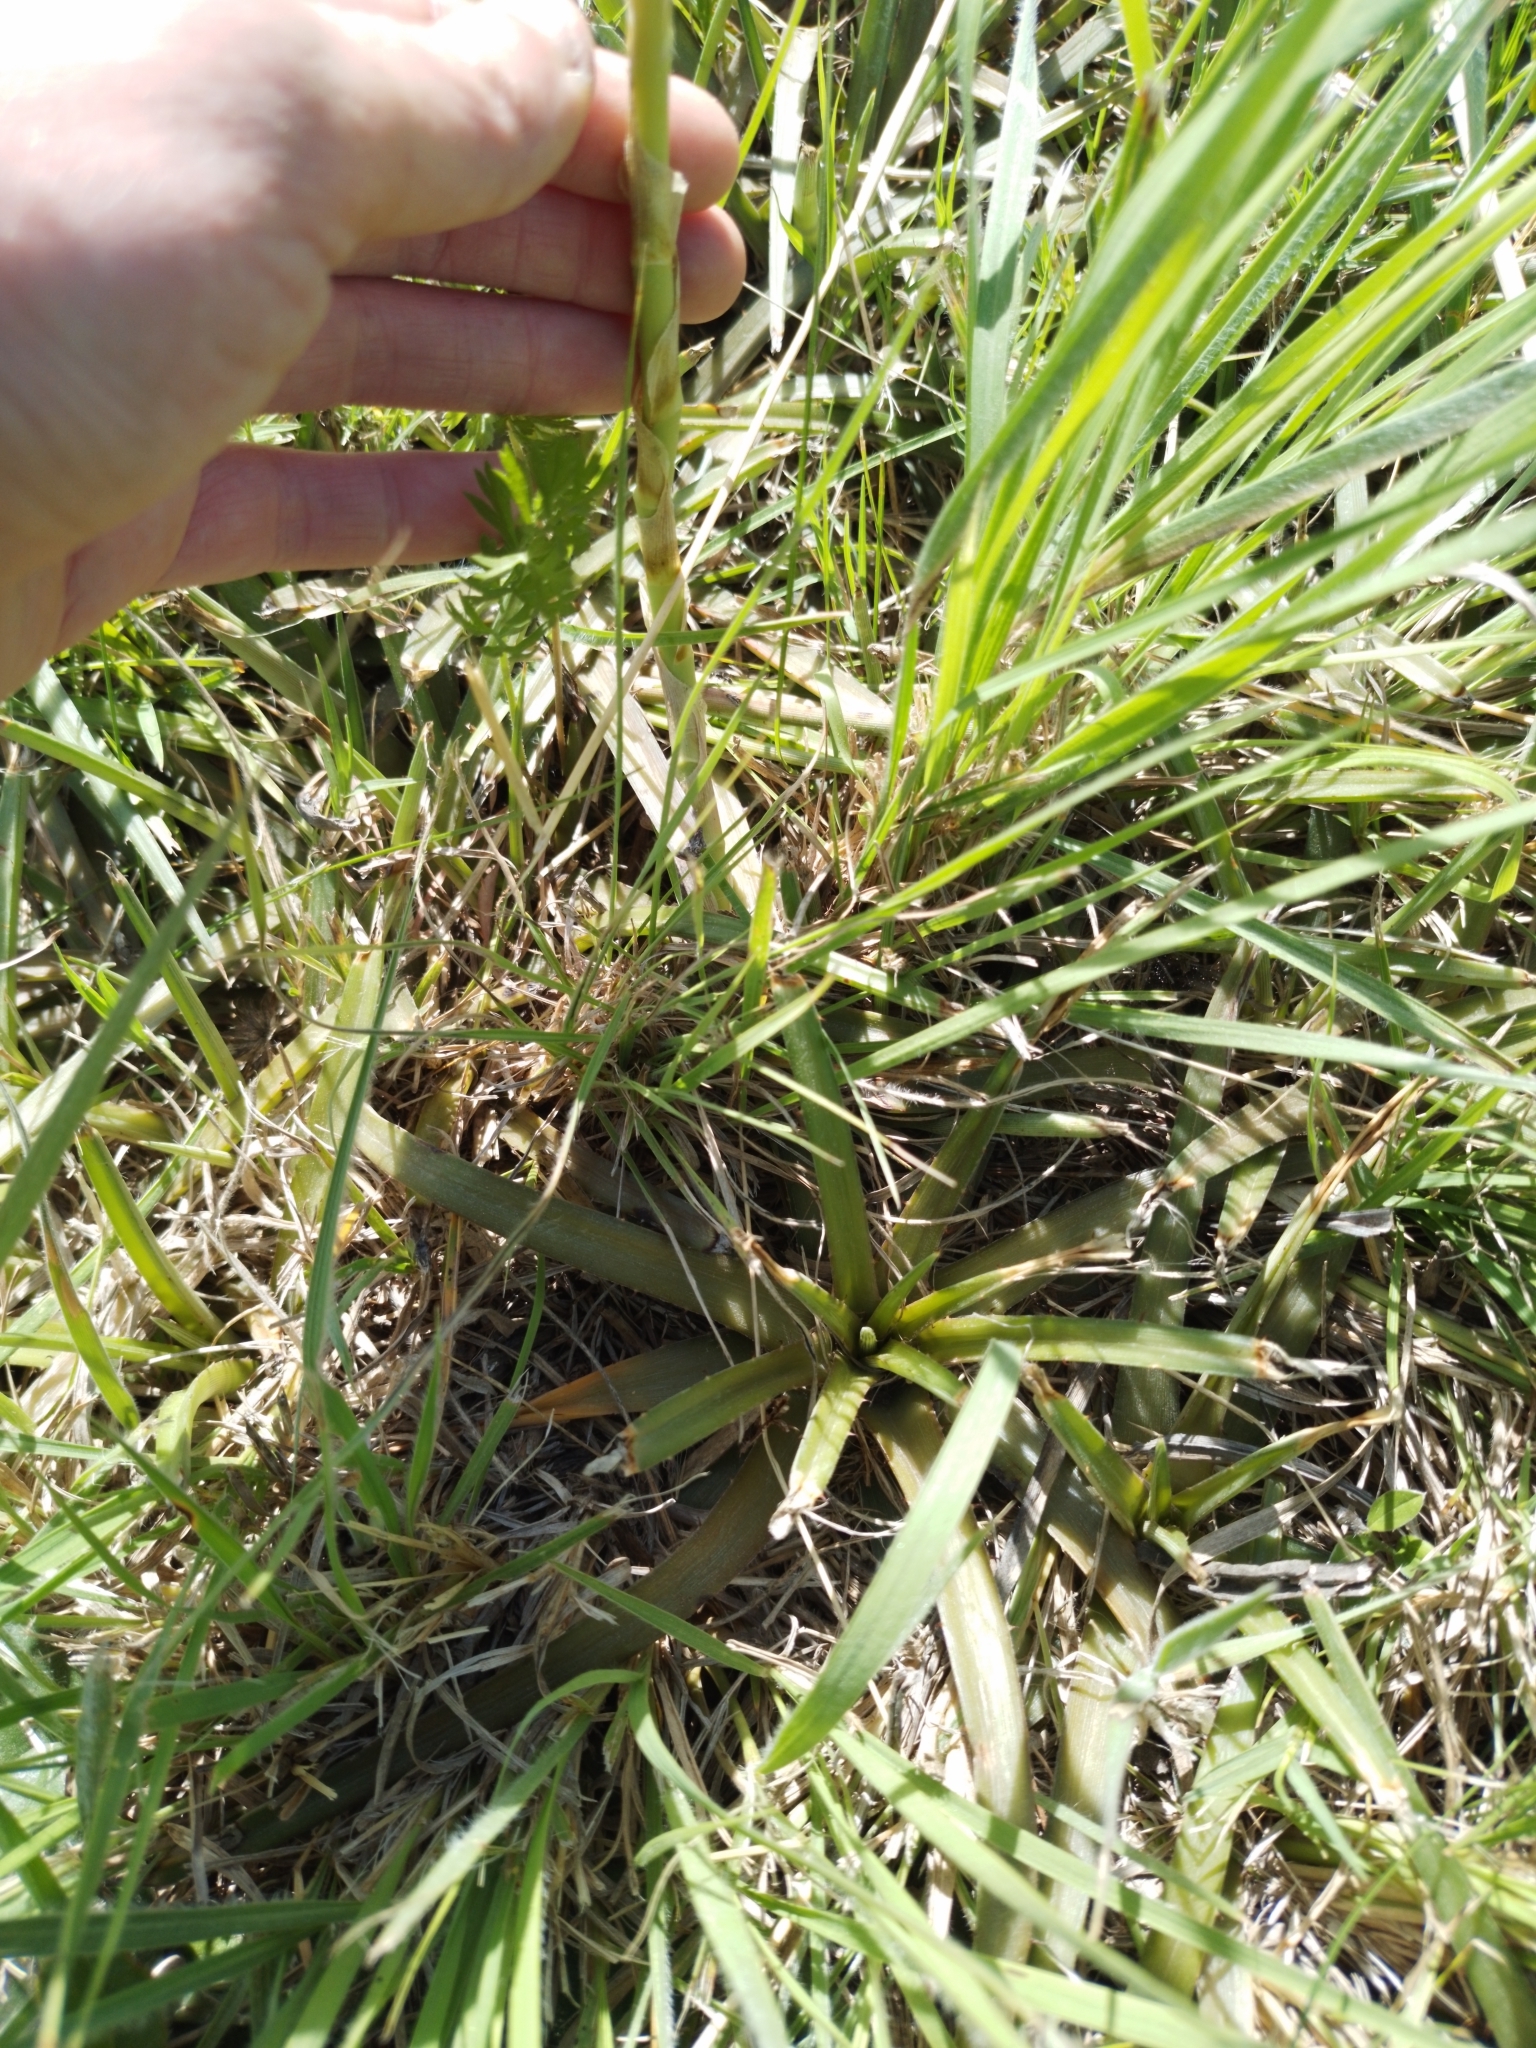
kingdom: Plantae
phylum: Tracheophyta
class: Liliopsida
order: Poales
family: Bromeliaceae
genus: Dyckia
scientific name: Dyckia remotiflora
